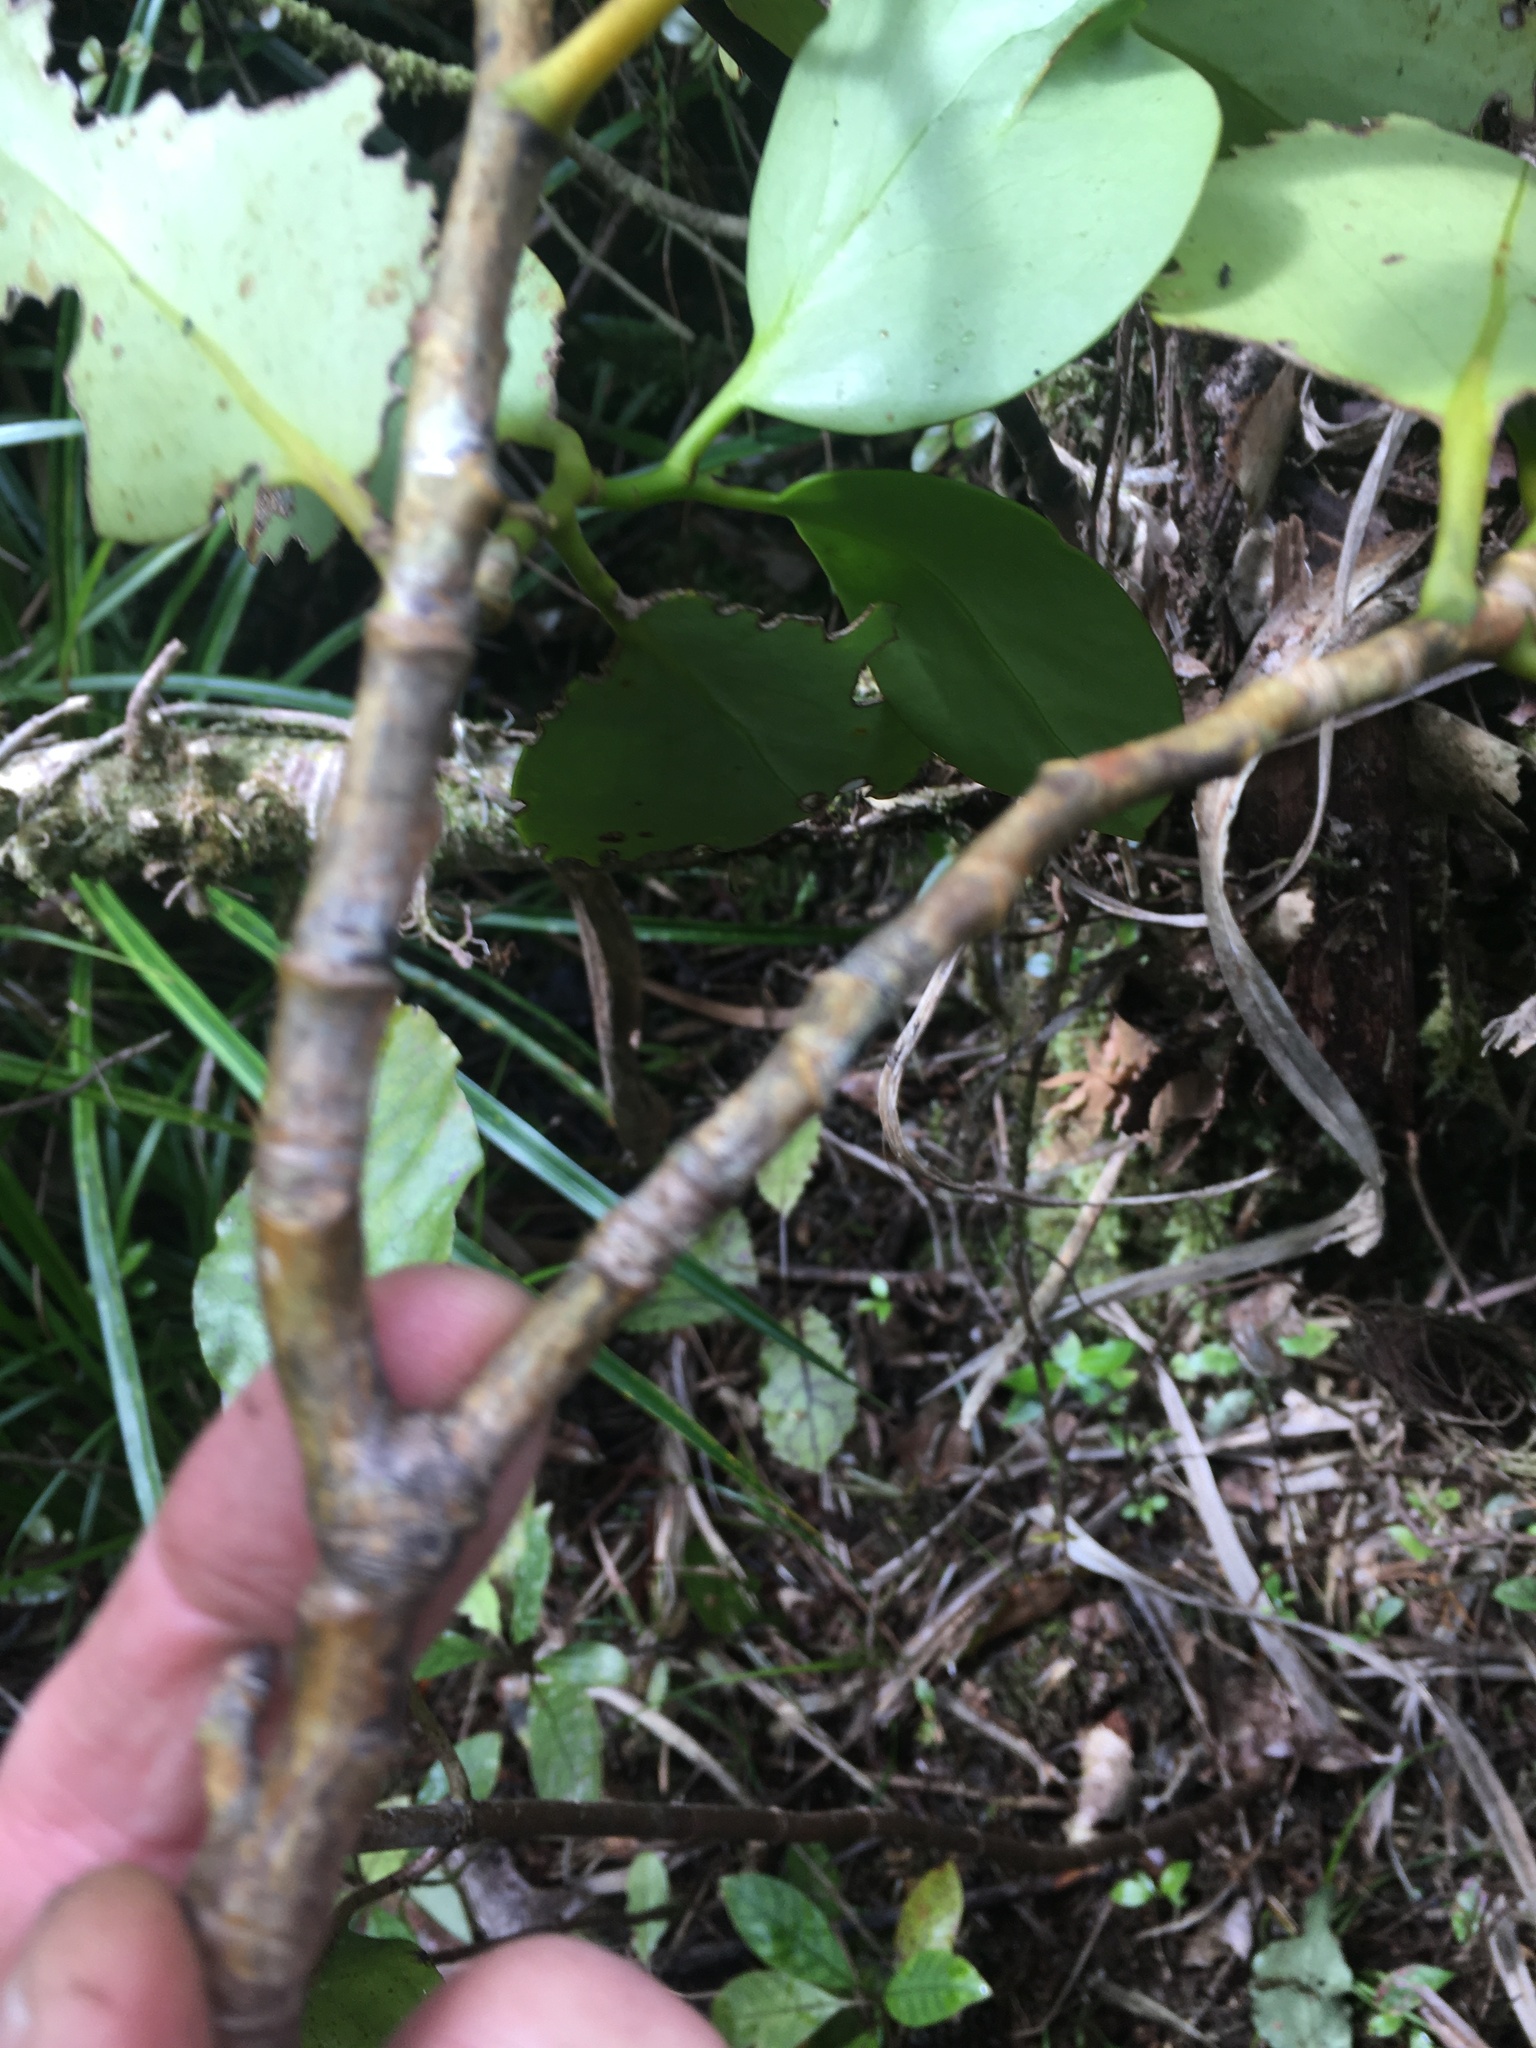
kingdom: Plantae
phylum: Tracheophyta
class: Magnoliopsida
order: Apiales
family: Griseliniaceae
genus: Griselinia
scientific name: Griselinia littoralis
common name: New zealand broadleaf
